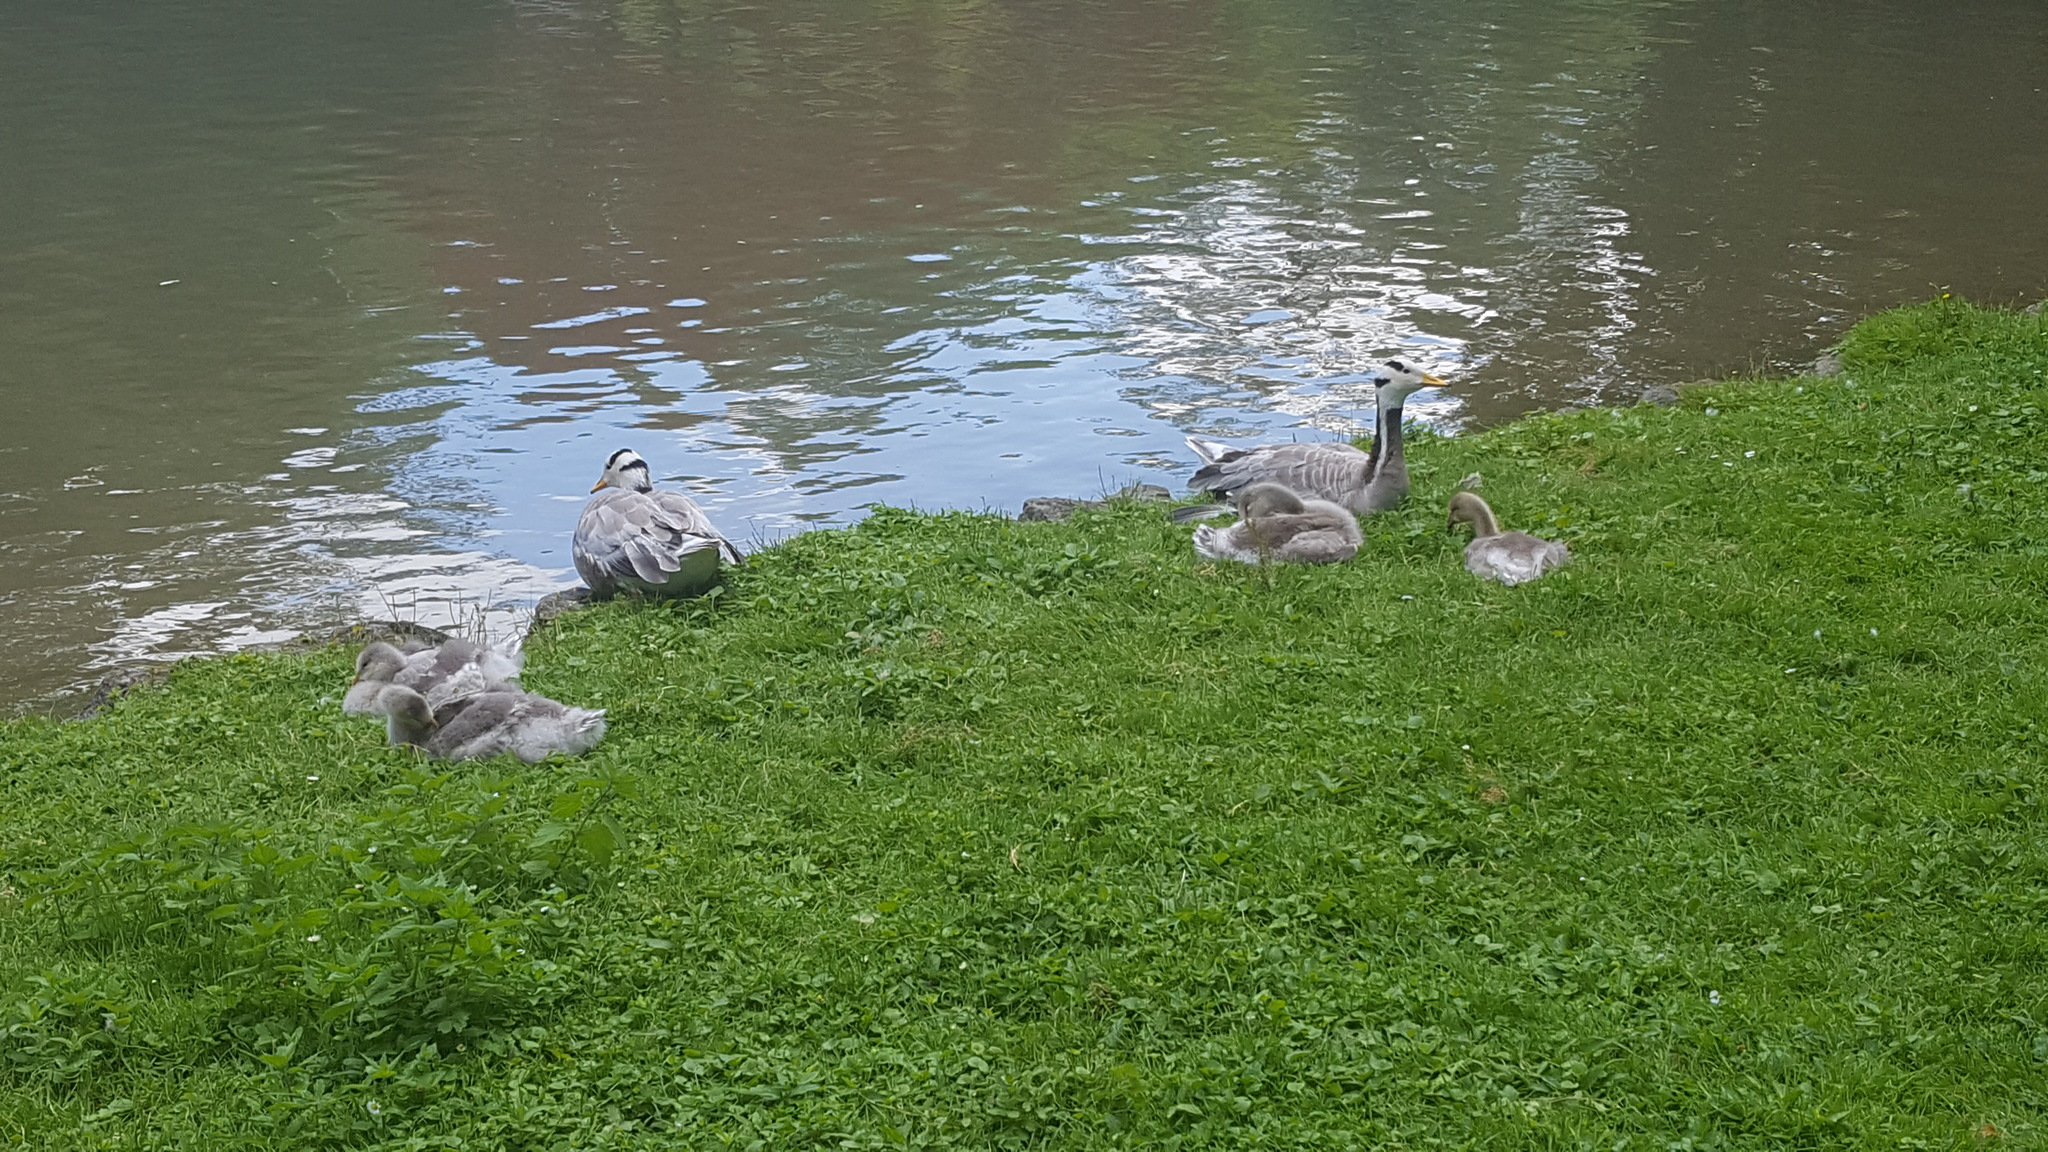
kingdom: Animalia
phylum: Chordata
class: Aves
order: Anseriformes
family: Anatidae
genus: Anser
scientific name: Anser indicus
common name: Bar-headed goose
